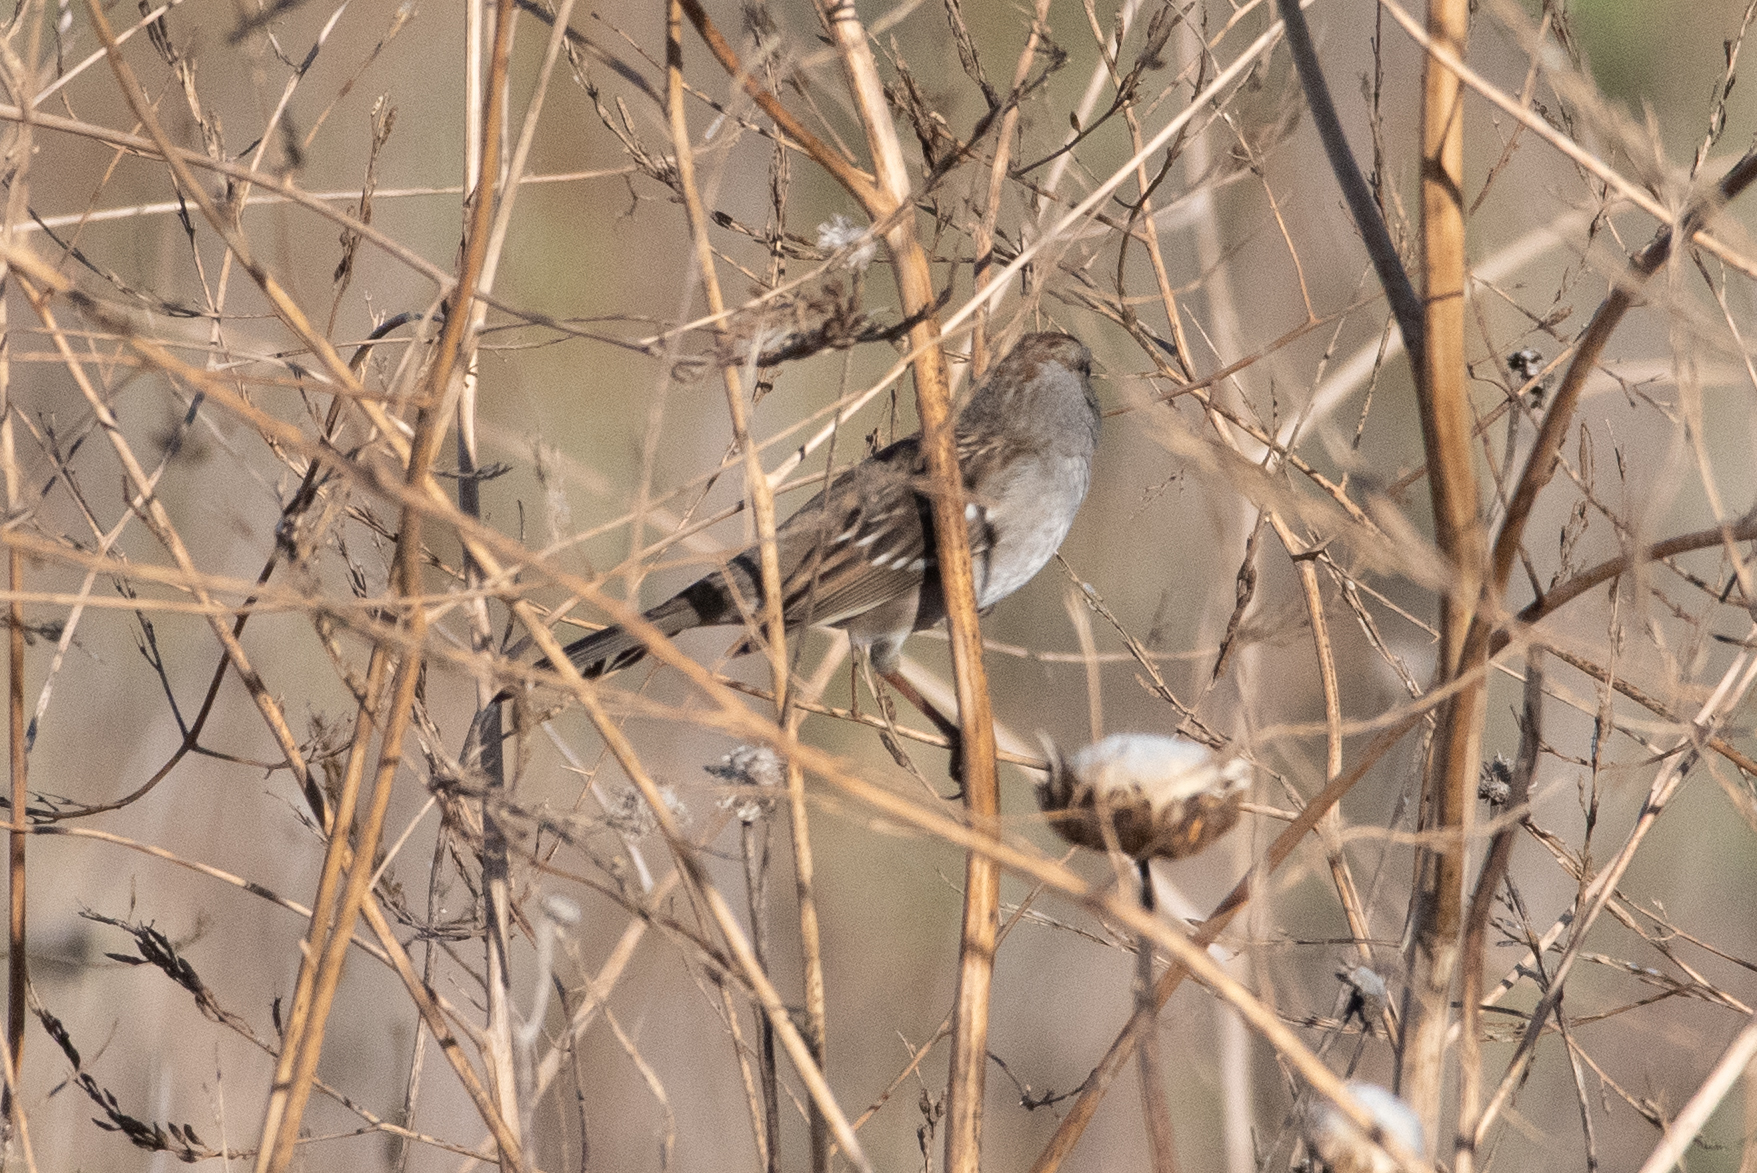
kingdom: Animalia
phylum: Chordata
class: Aves
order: Passeriformes
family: Passerellidae
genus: Zonotrichia
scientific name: Zonotrichia leucophrys
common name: White-crowned sparrow
